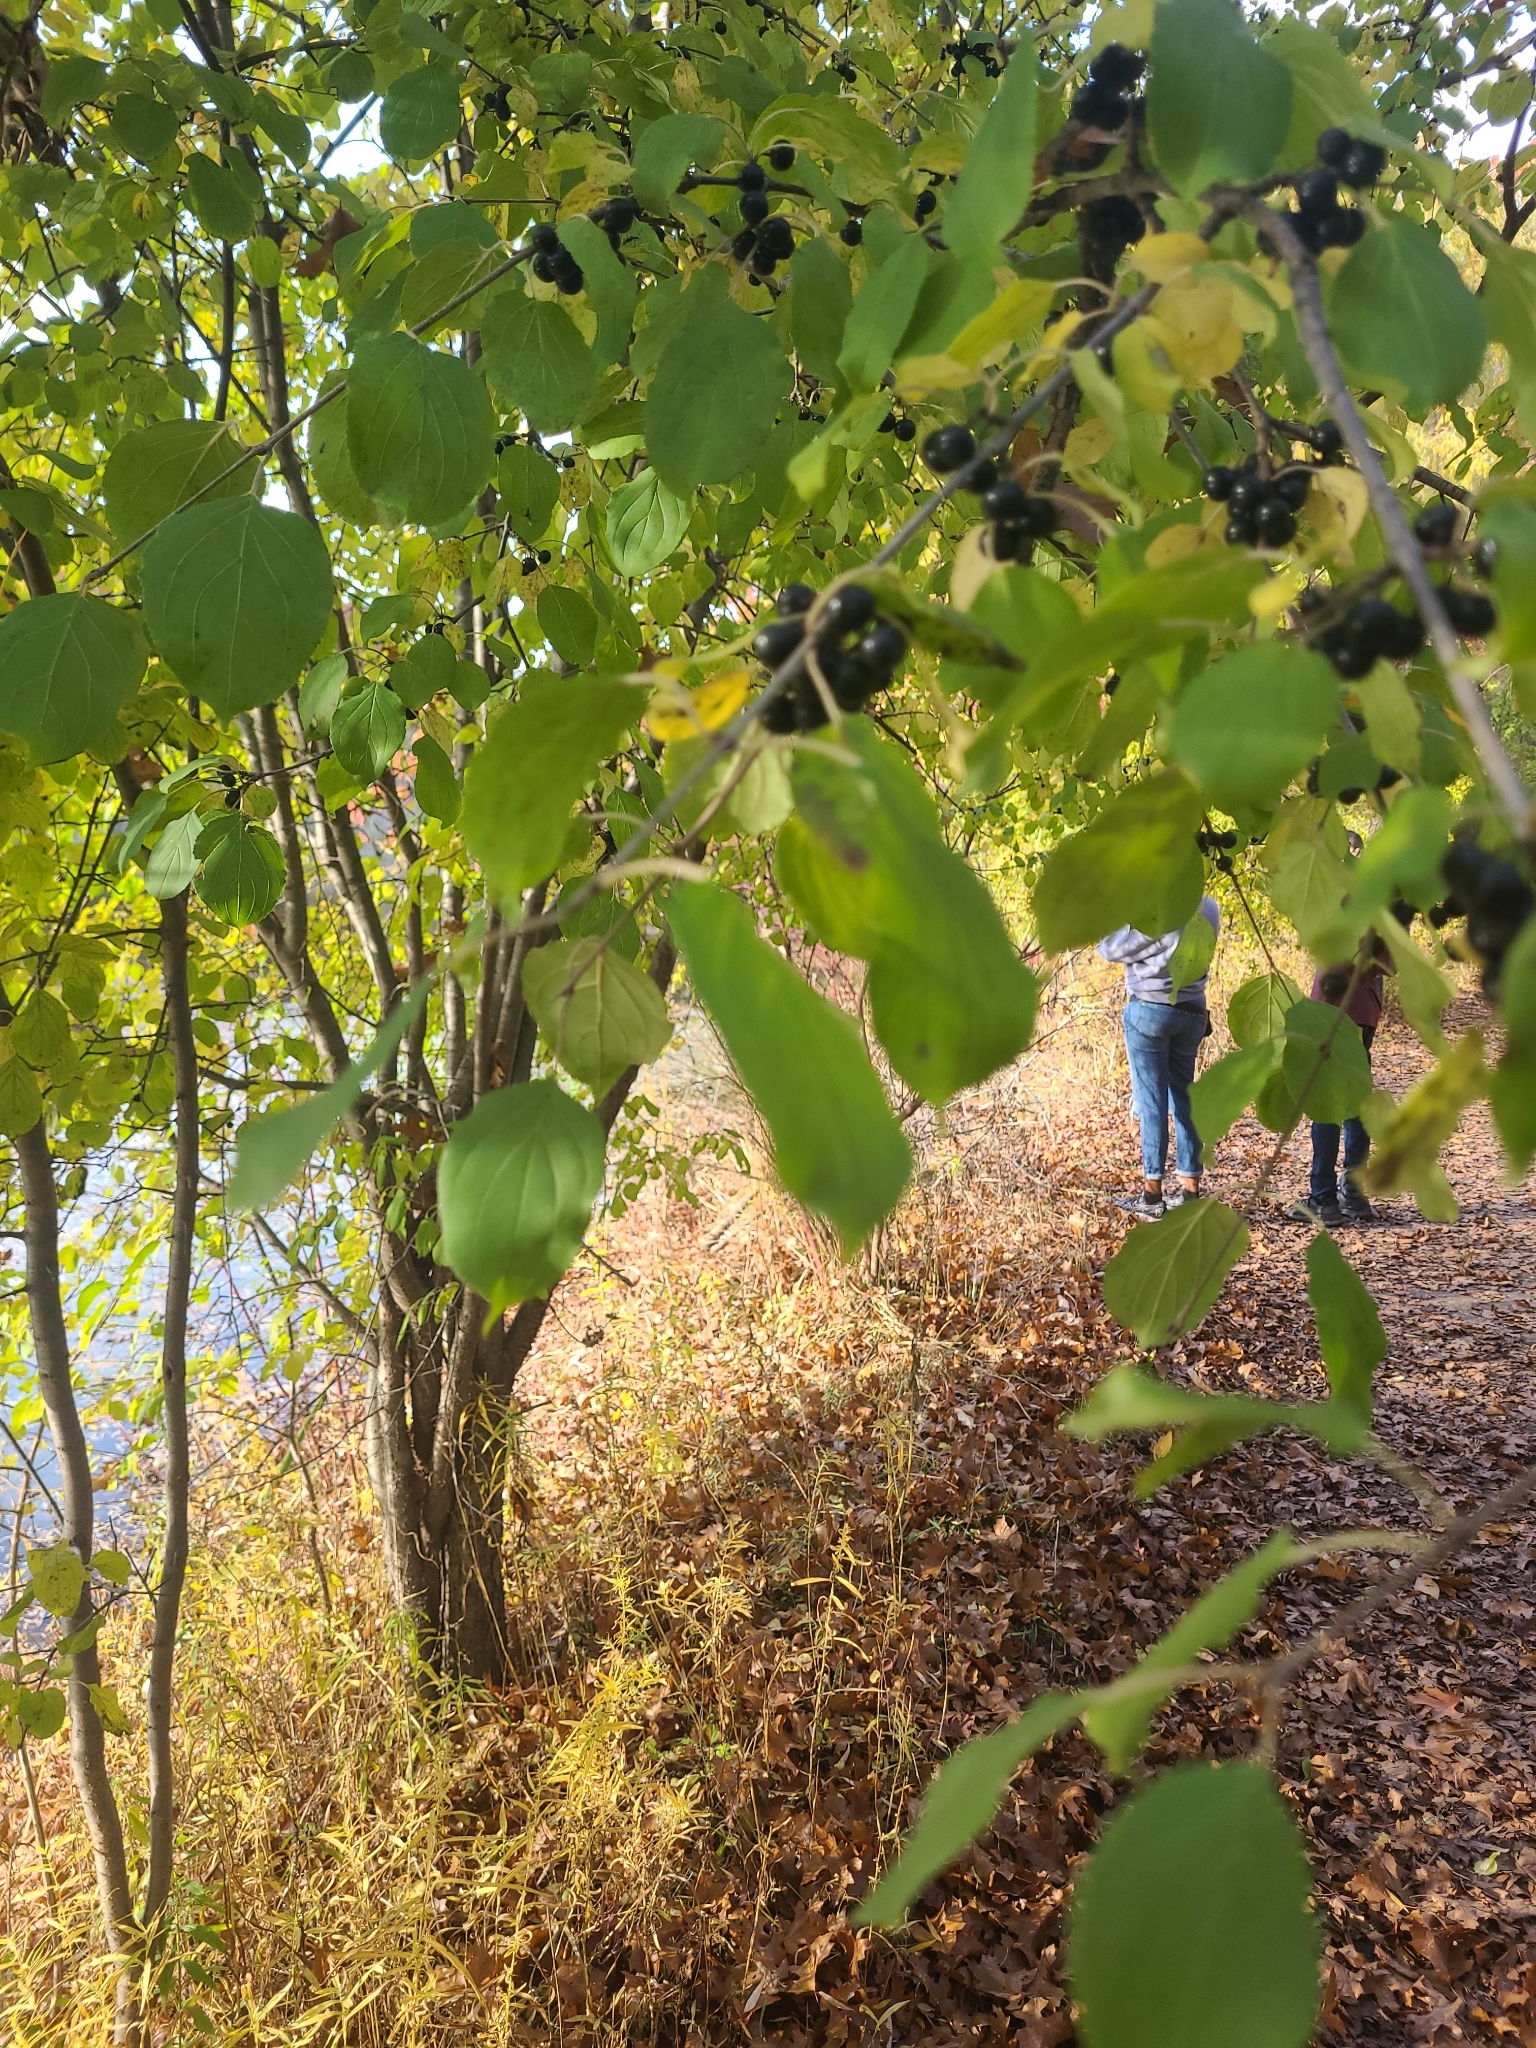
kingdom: Plantae
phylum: Tracheophyta
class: Magnoliopsida
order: Rosales
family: Rhamnaceae
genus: Rhamnus
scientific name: Rhamnus cathartica
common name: Common buckthorn
